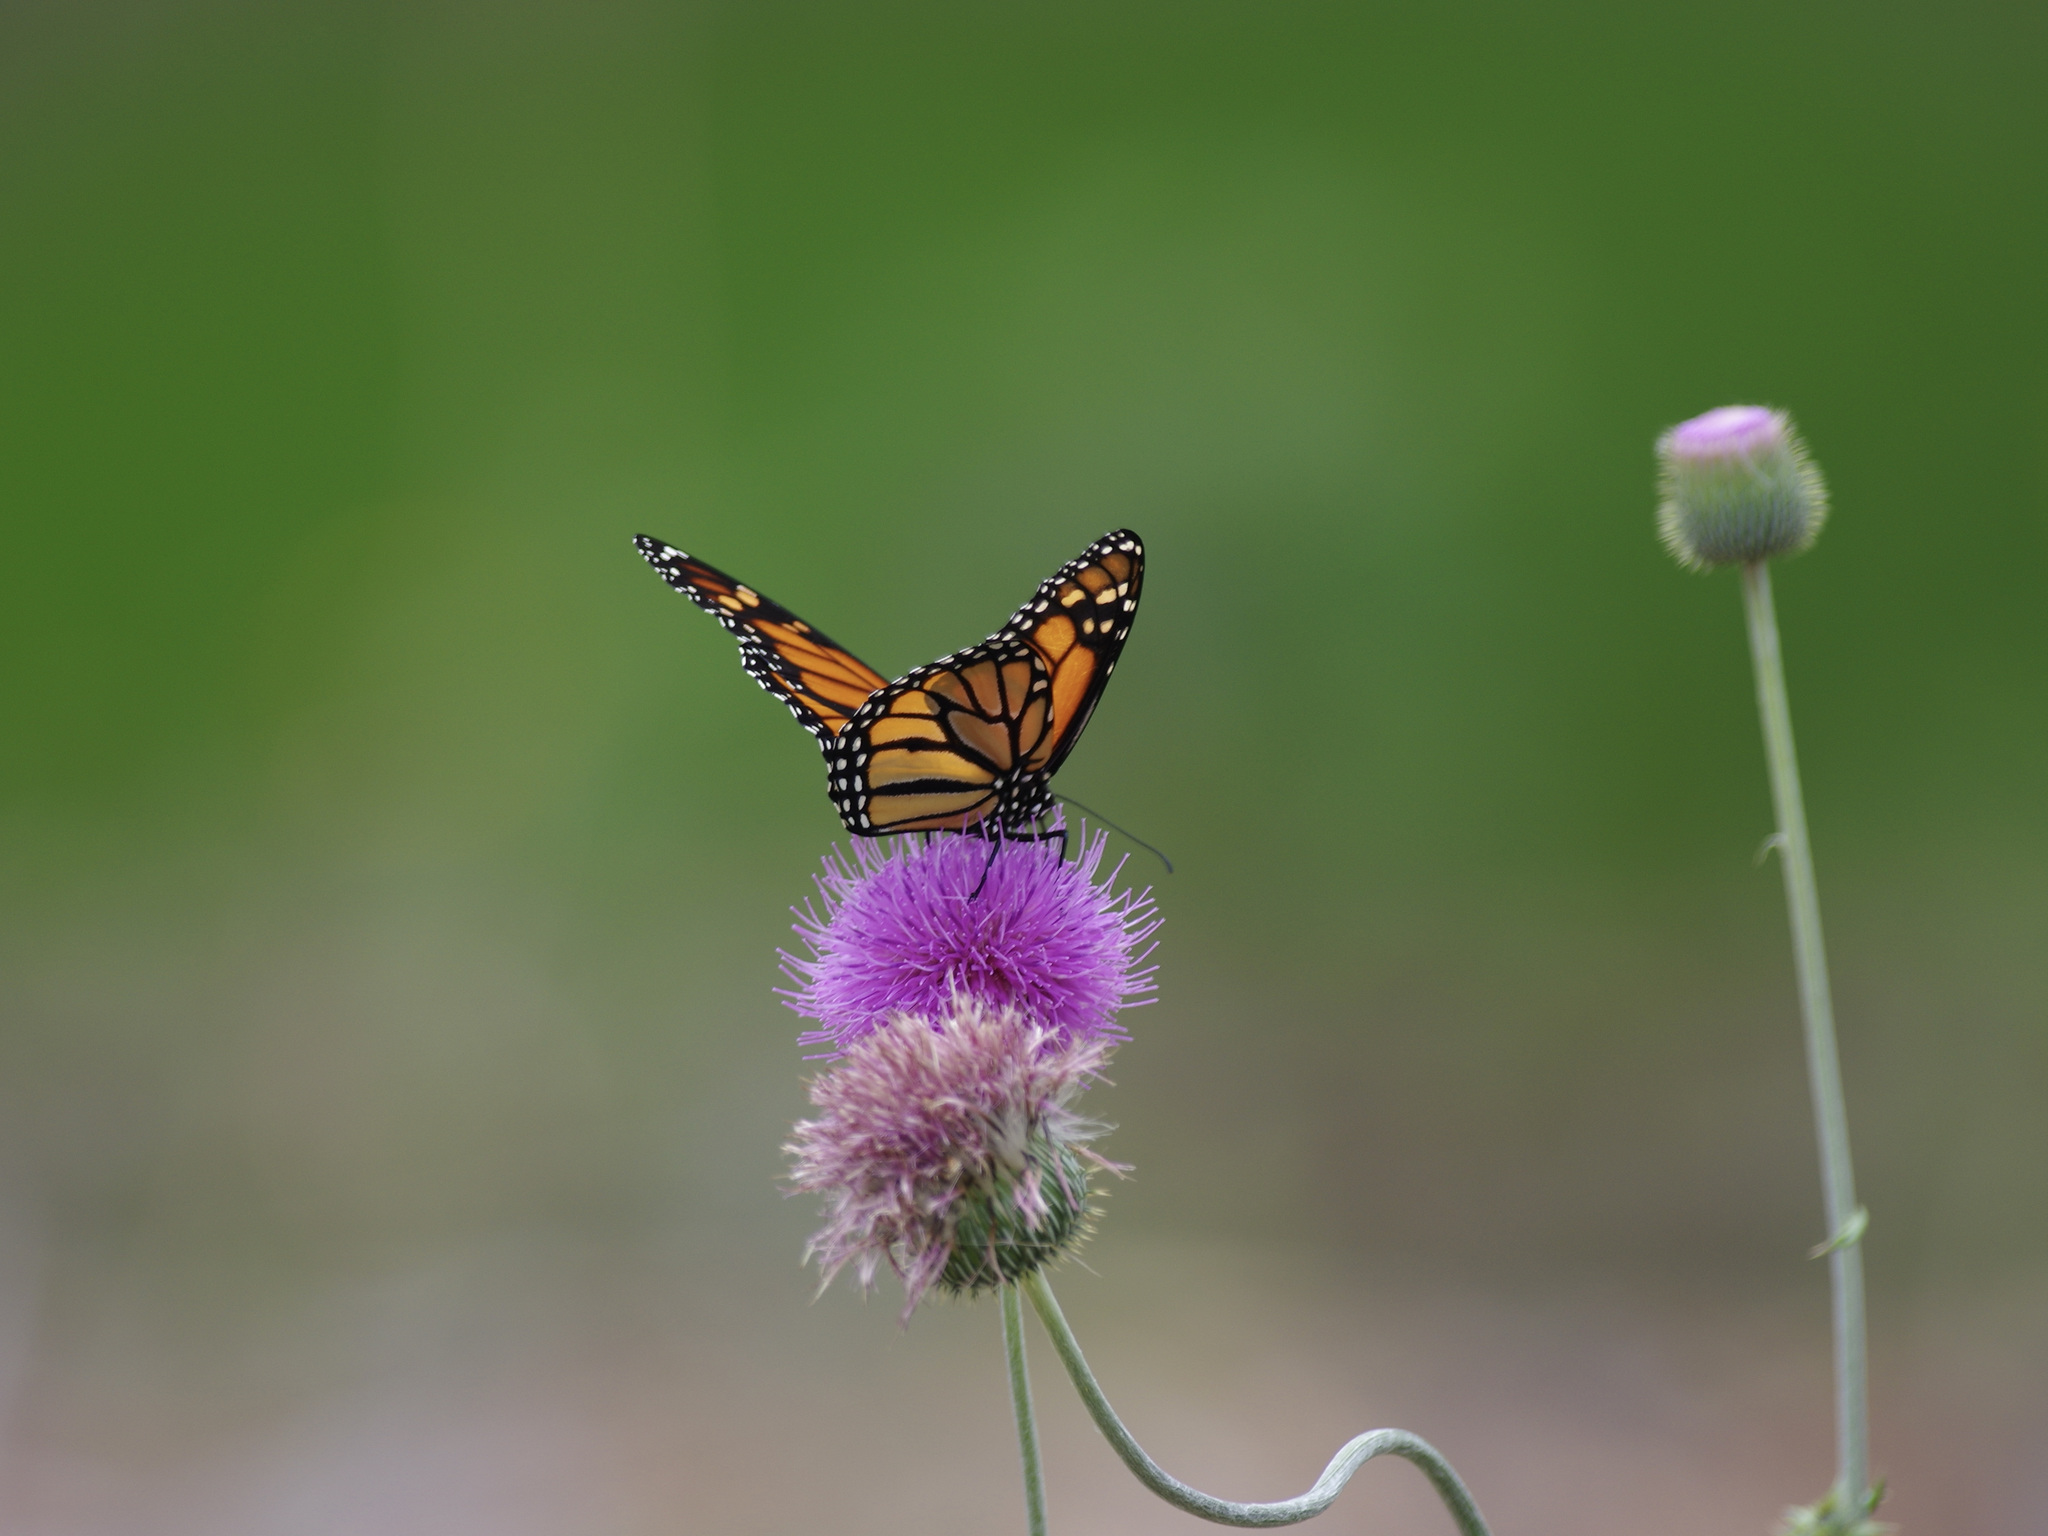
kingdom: Animalia
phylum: Arthropoda
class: Insecta
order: Lepidoptera
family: Nymphalidae
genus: Danaus
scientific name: Danaus plexippus
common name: Monarch
